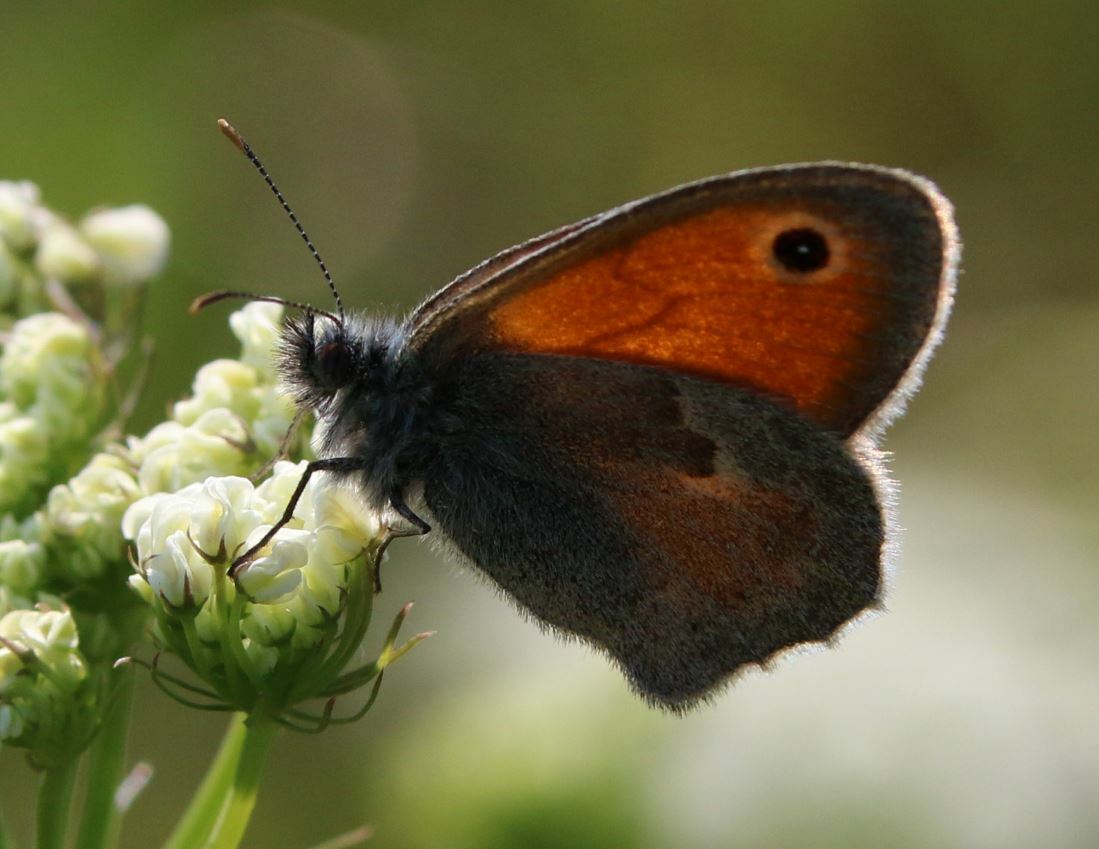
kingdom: Animalia
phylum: Arthropoda
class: Insecta
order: Lepidoptera
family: Nymphalidae
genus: Coenonympha
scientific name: Coenonympha pamphilus
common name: Small heath
